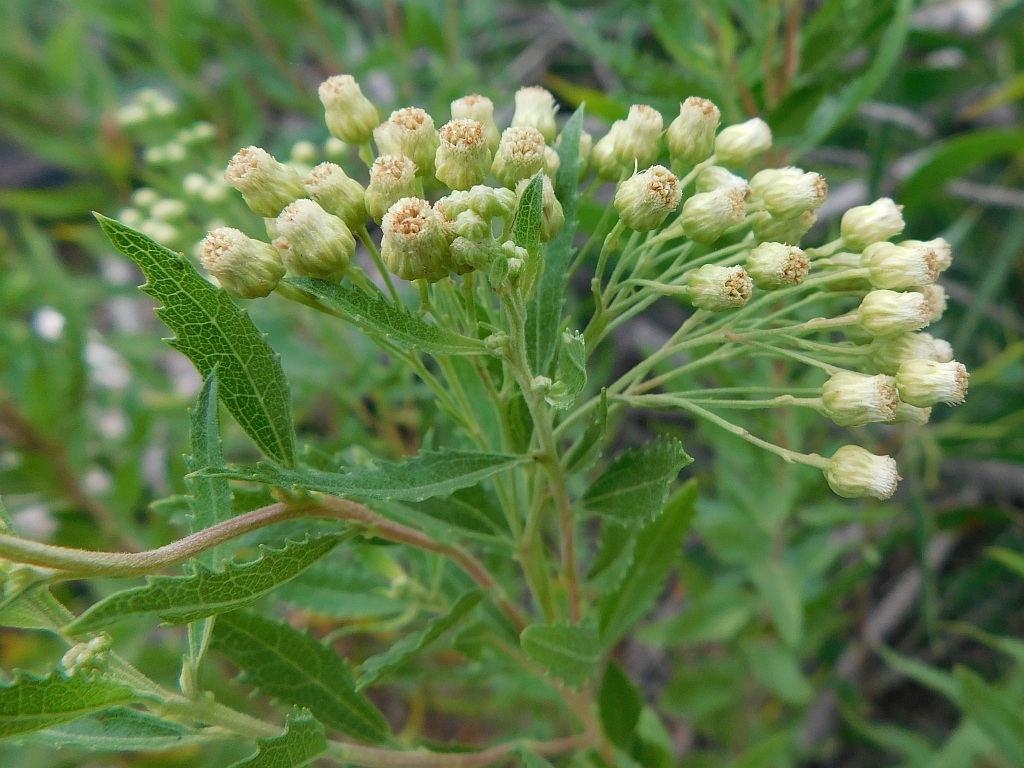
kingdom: Plantae
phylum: Tracheophyta
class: Magnoliopsida
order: Asterales
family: Asteraceae
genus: Nidorella
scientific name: Nidorella ivifolia
